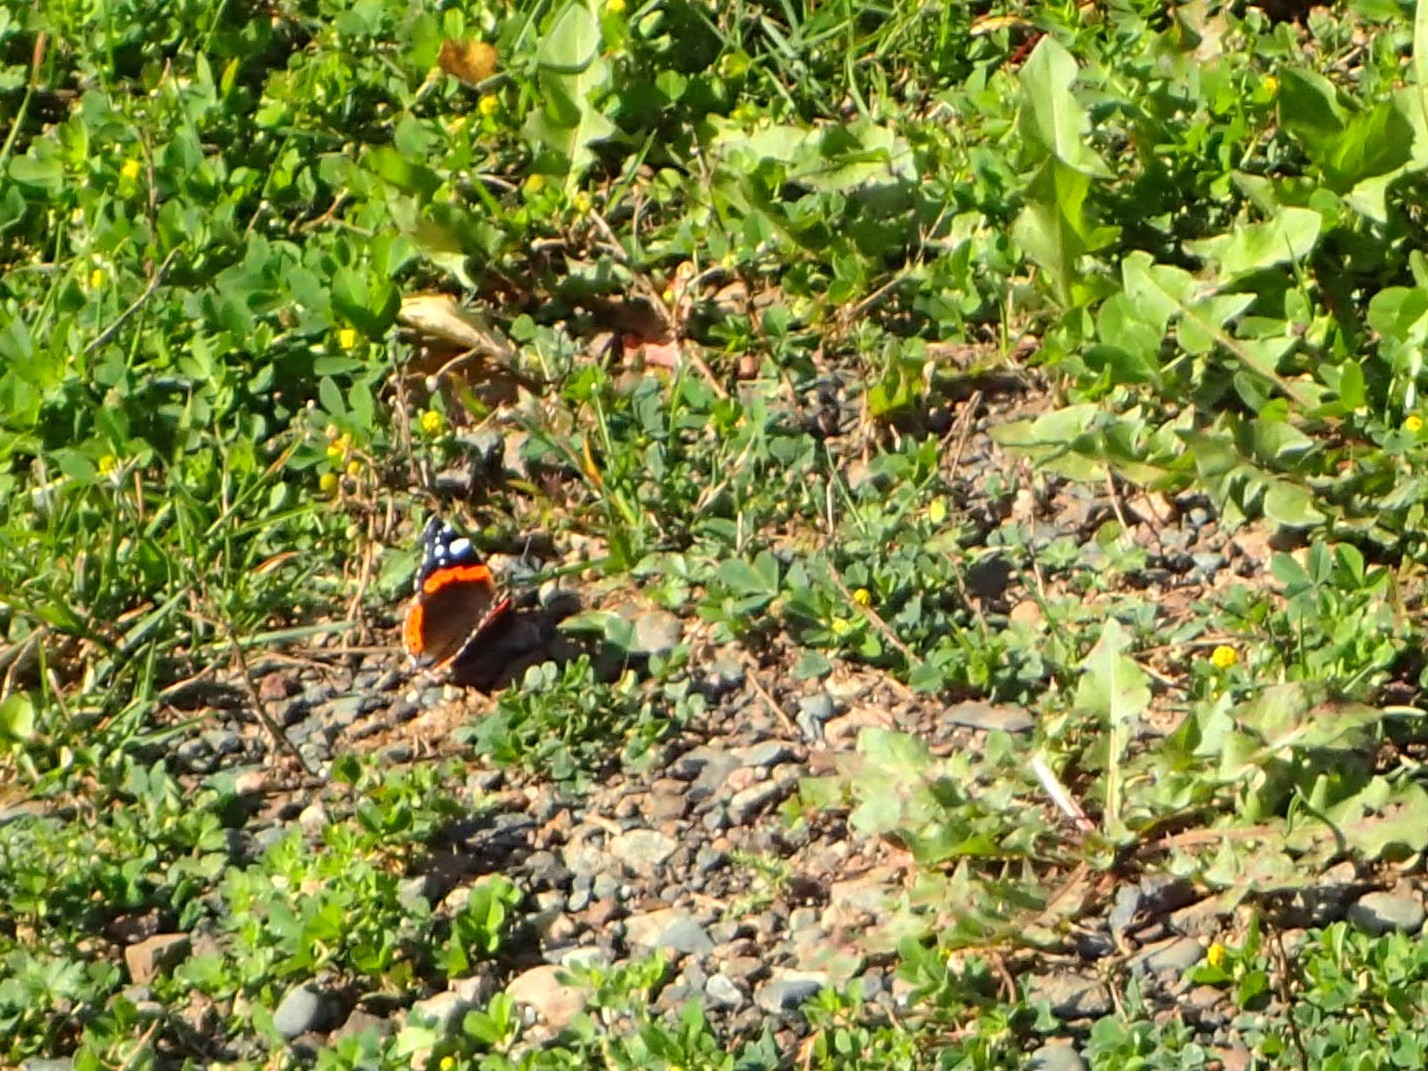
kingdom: Animalia
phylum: Arthropoda
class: Insecta
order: Lepidoptera
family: Nymphalidae
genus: Vanessa
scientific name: Vanessa atalanta
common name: Red admiral
